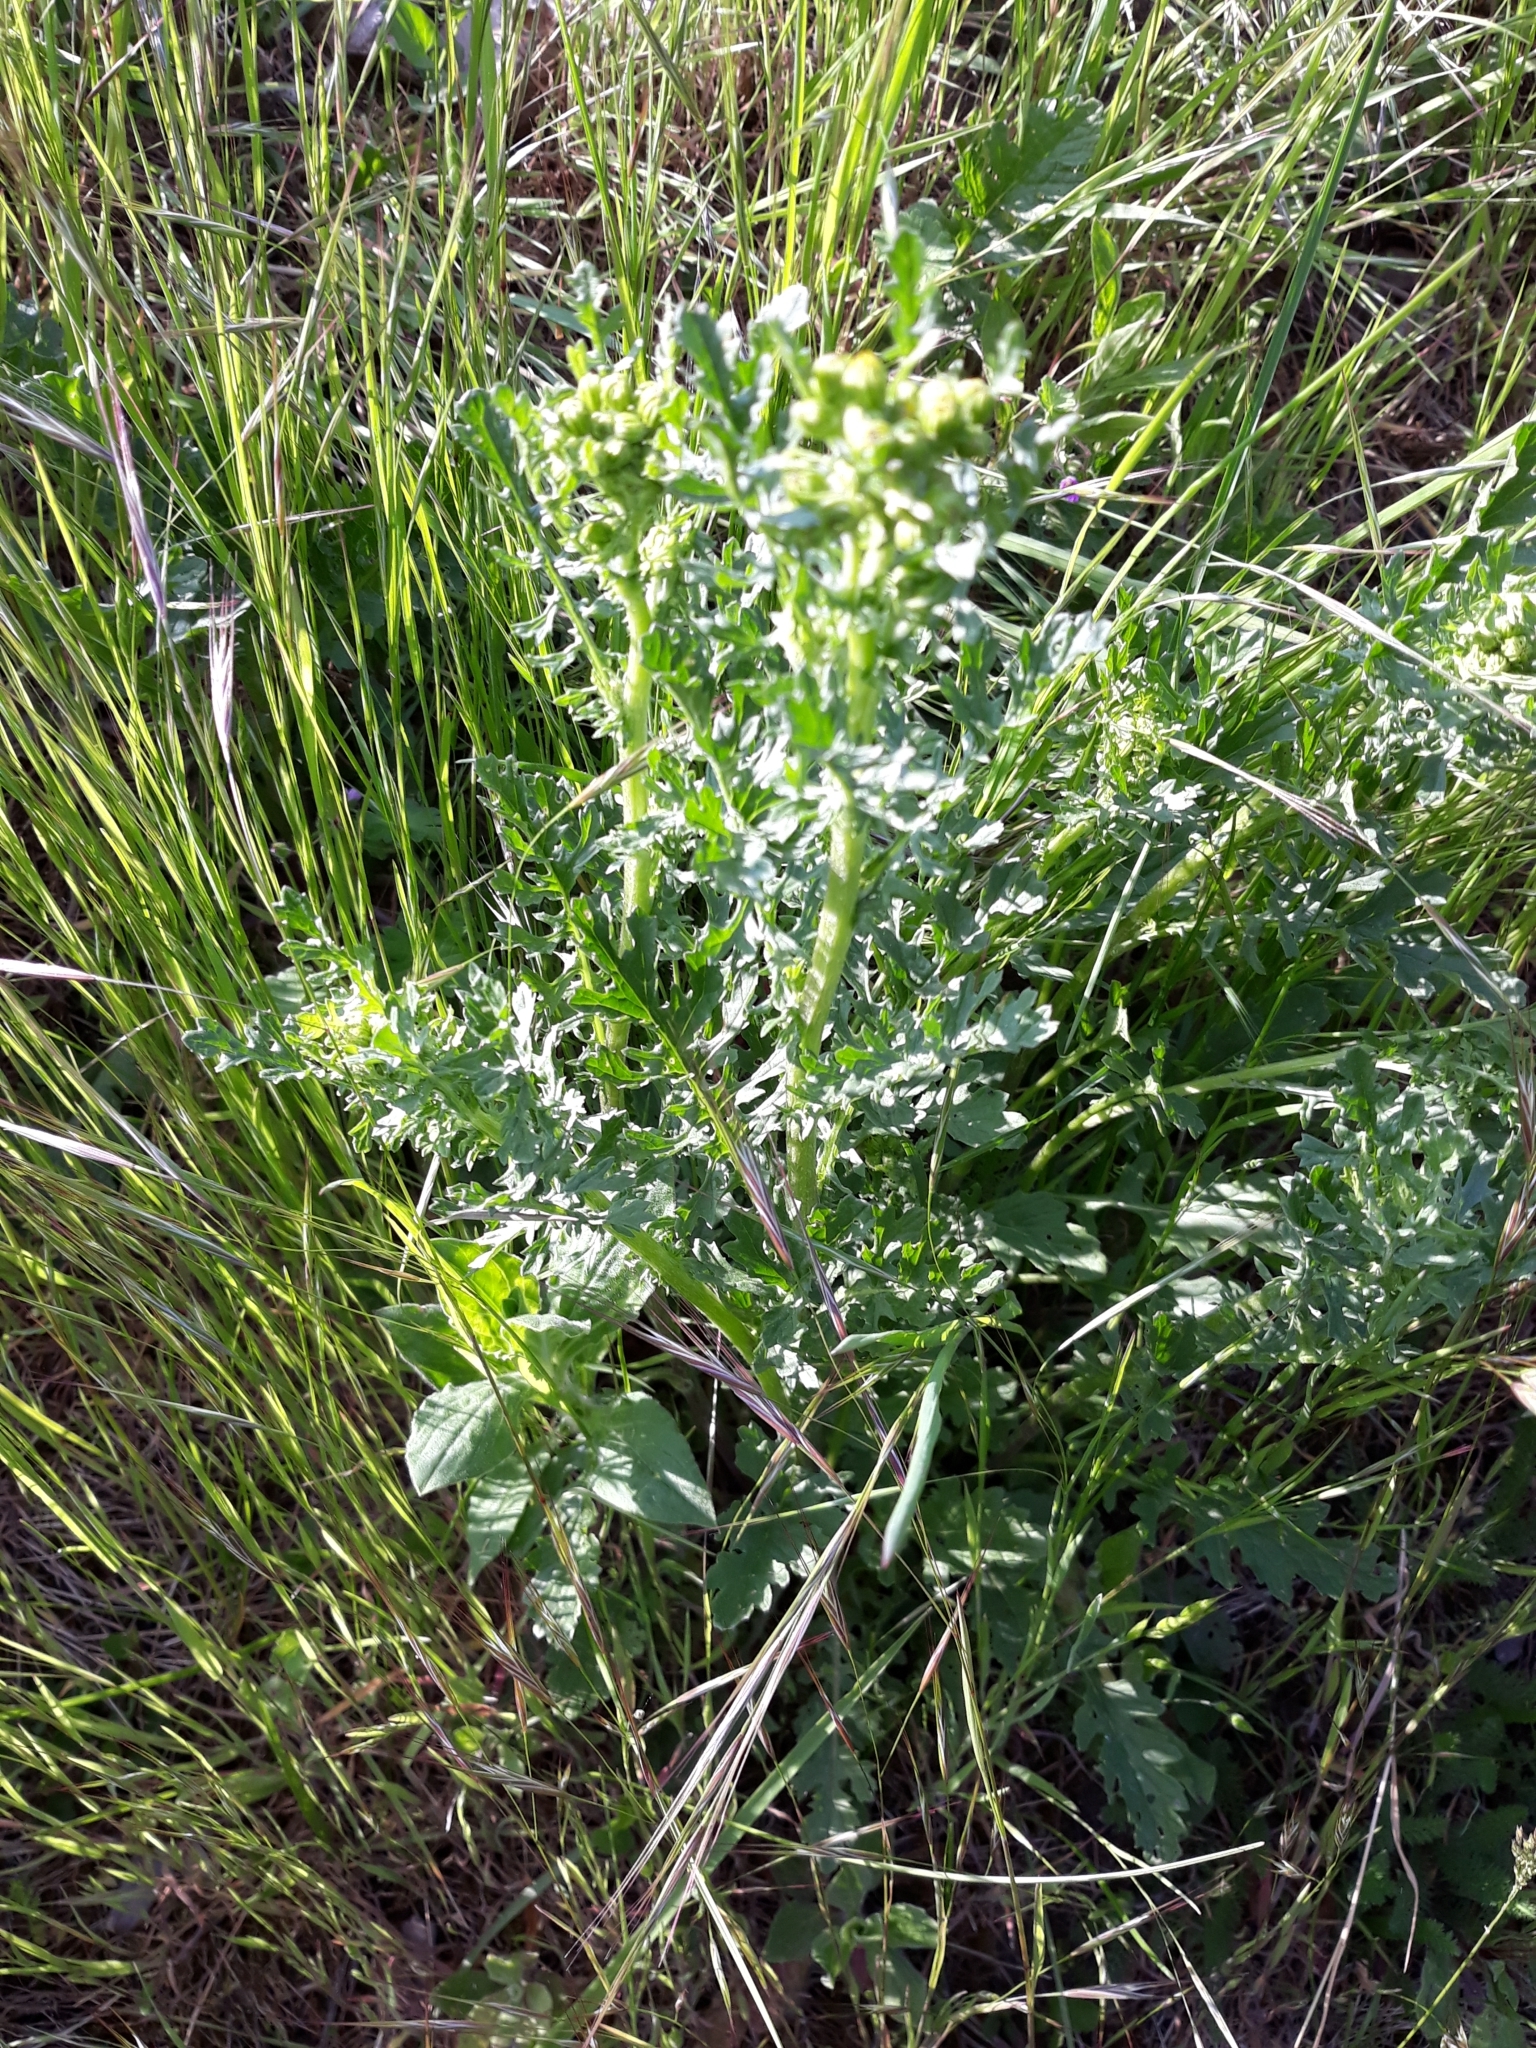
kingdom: Plantae
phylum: Tracheophyta
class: Magnoliopsida
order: Asterales
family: Asteraceae
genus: Jacobaea
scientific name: Jacobaea vulgaris
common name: Stinking willie
